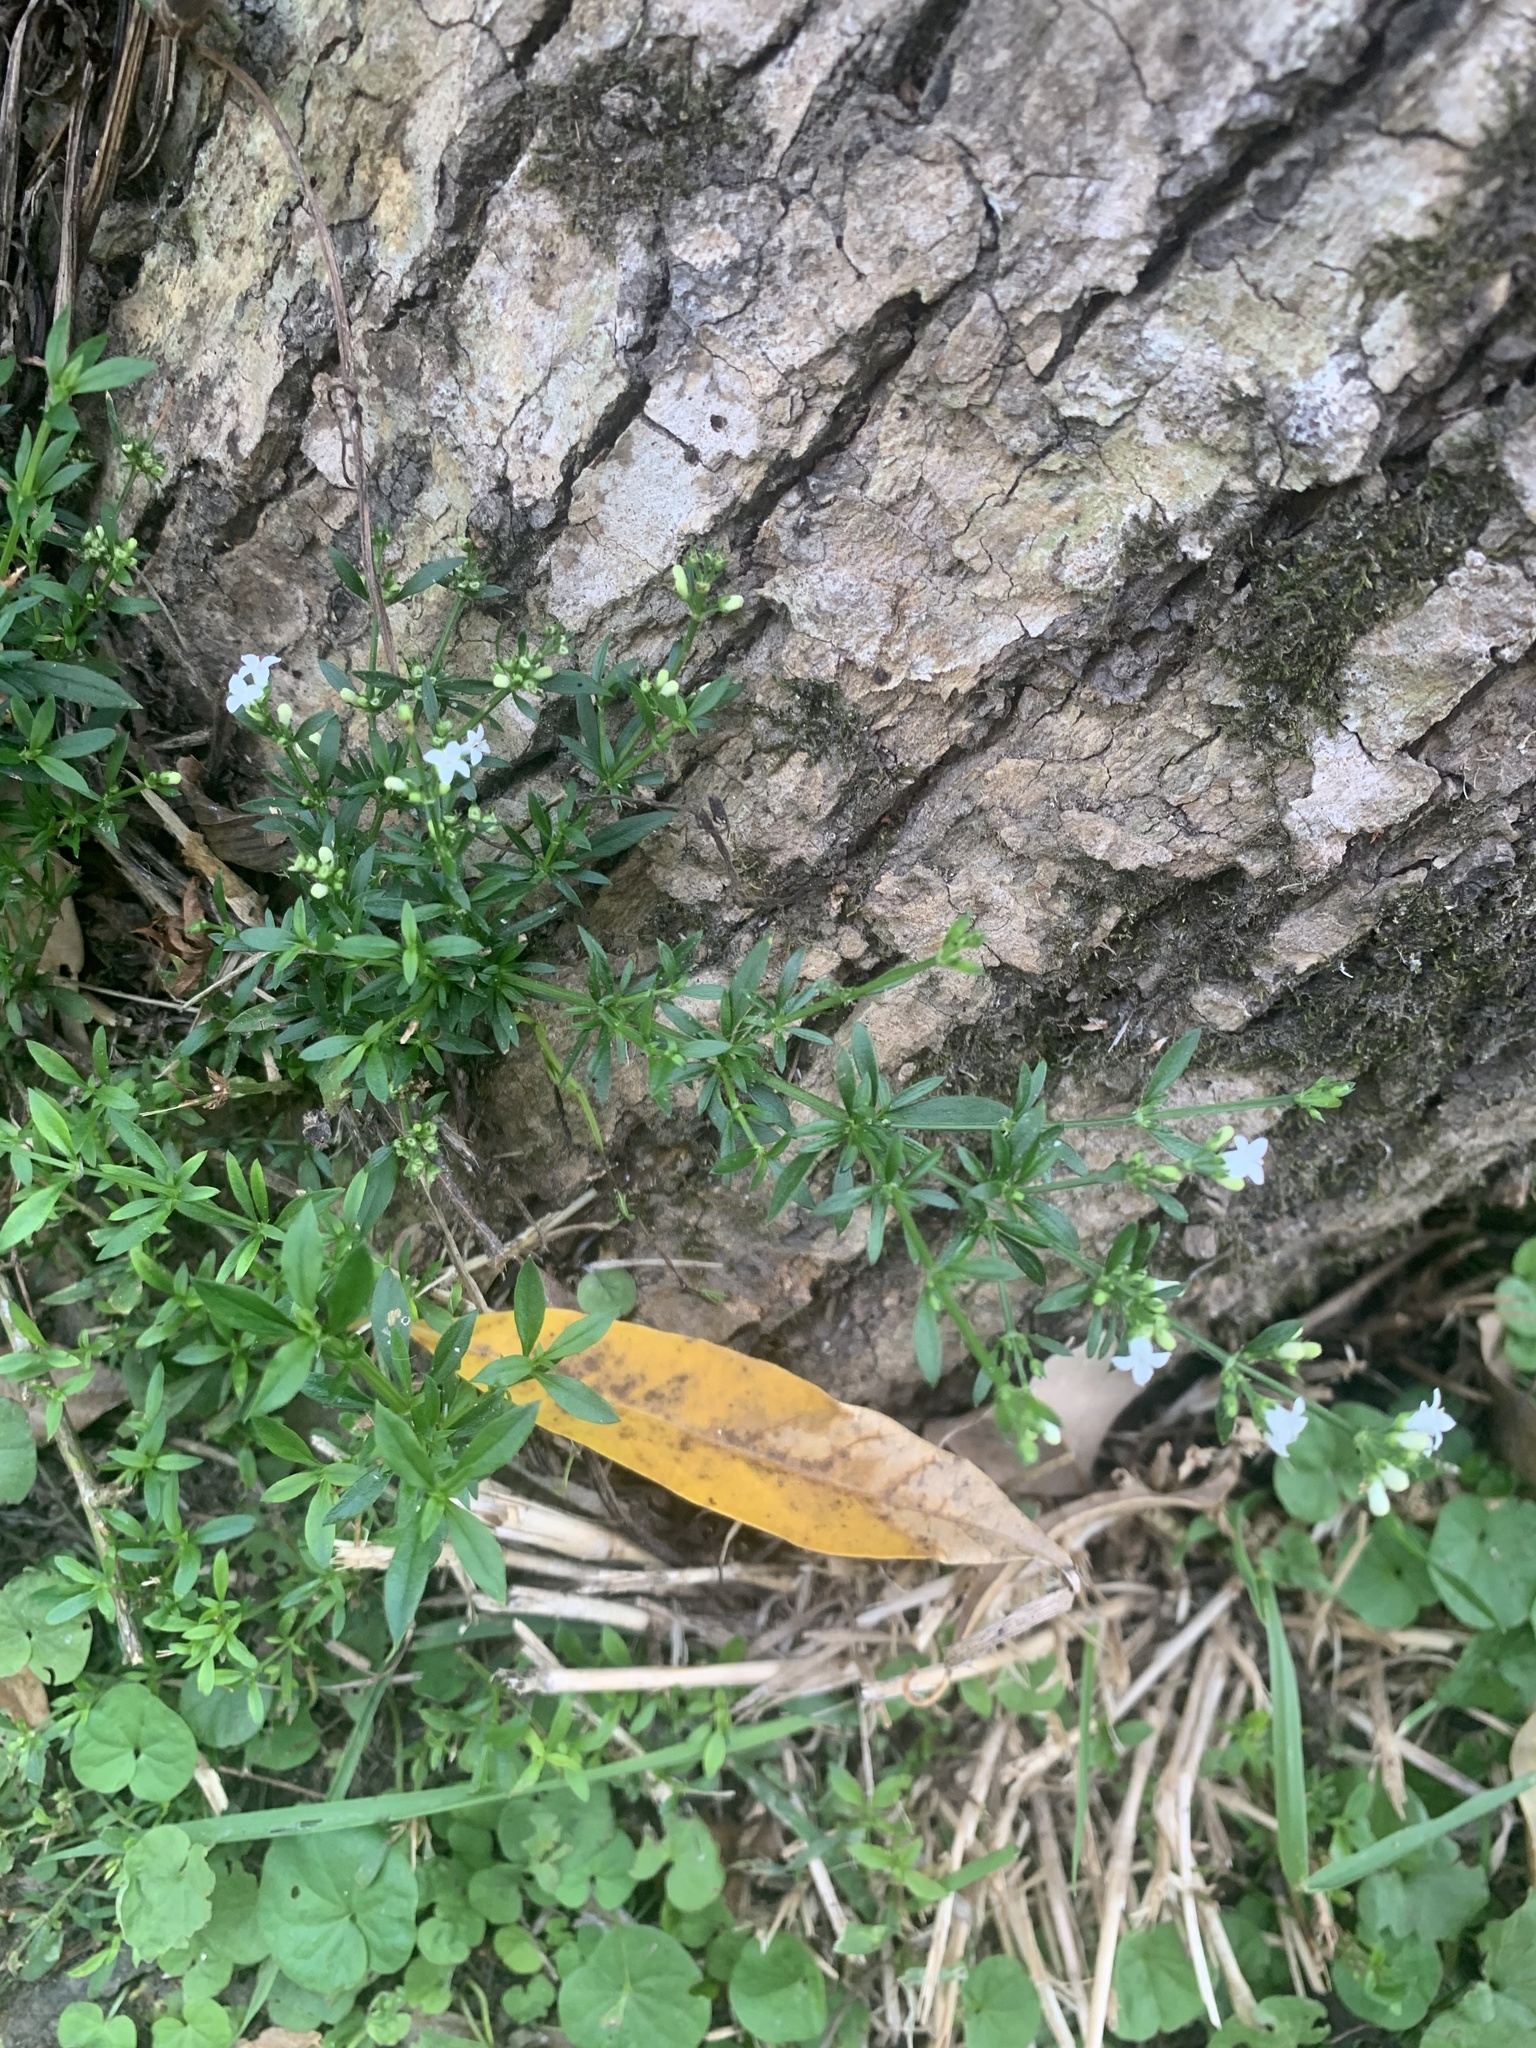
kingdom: Plantae
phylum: Tracheophyta
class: Magnoliopsida
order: Gentianales
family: Rubiaceae
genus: Galianthe
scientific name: Galianthe brasiliensis
